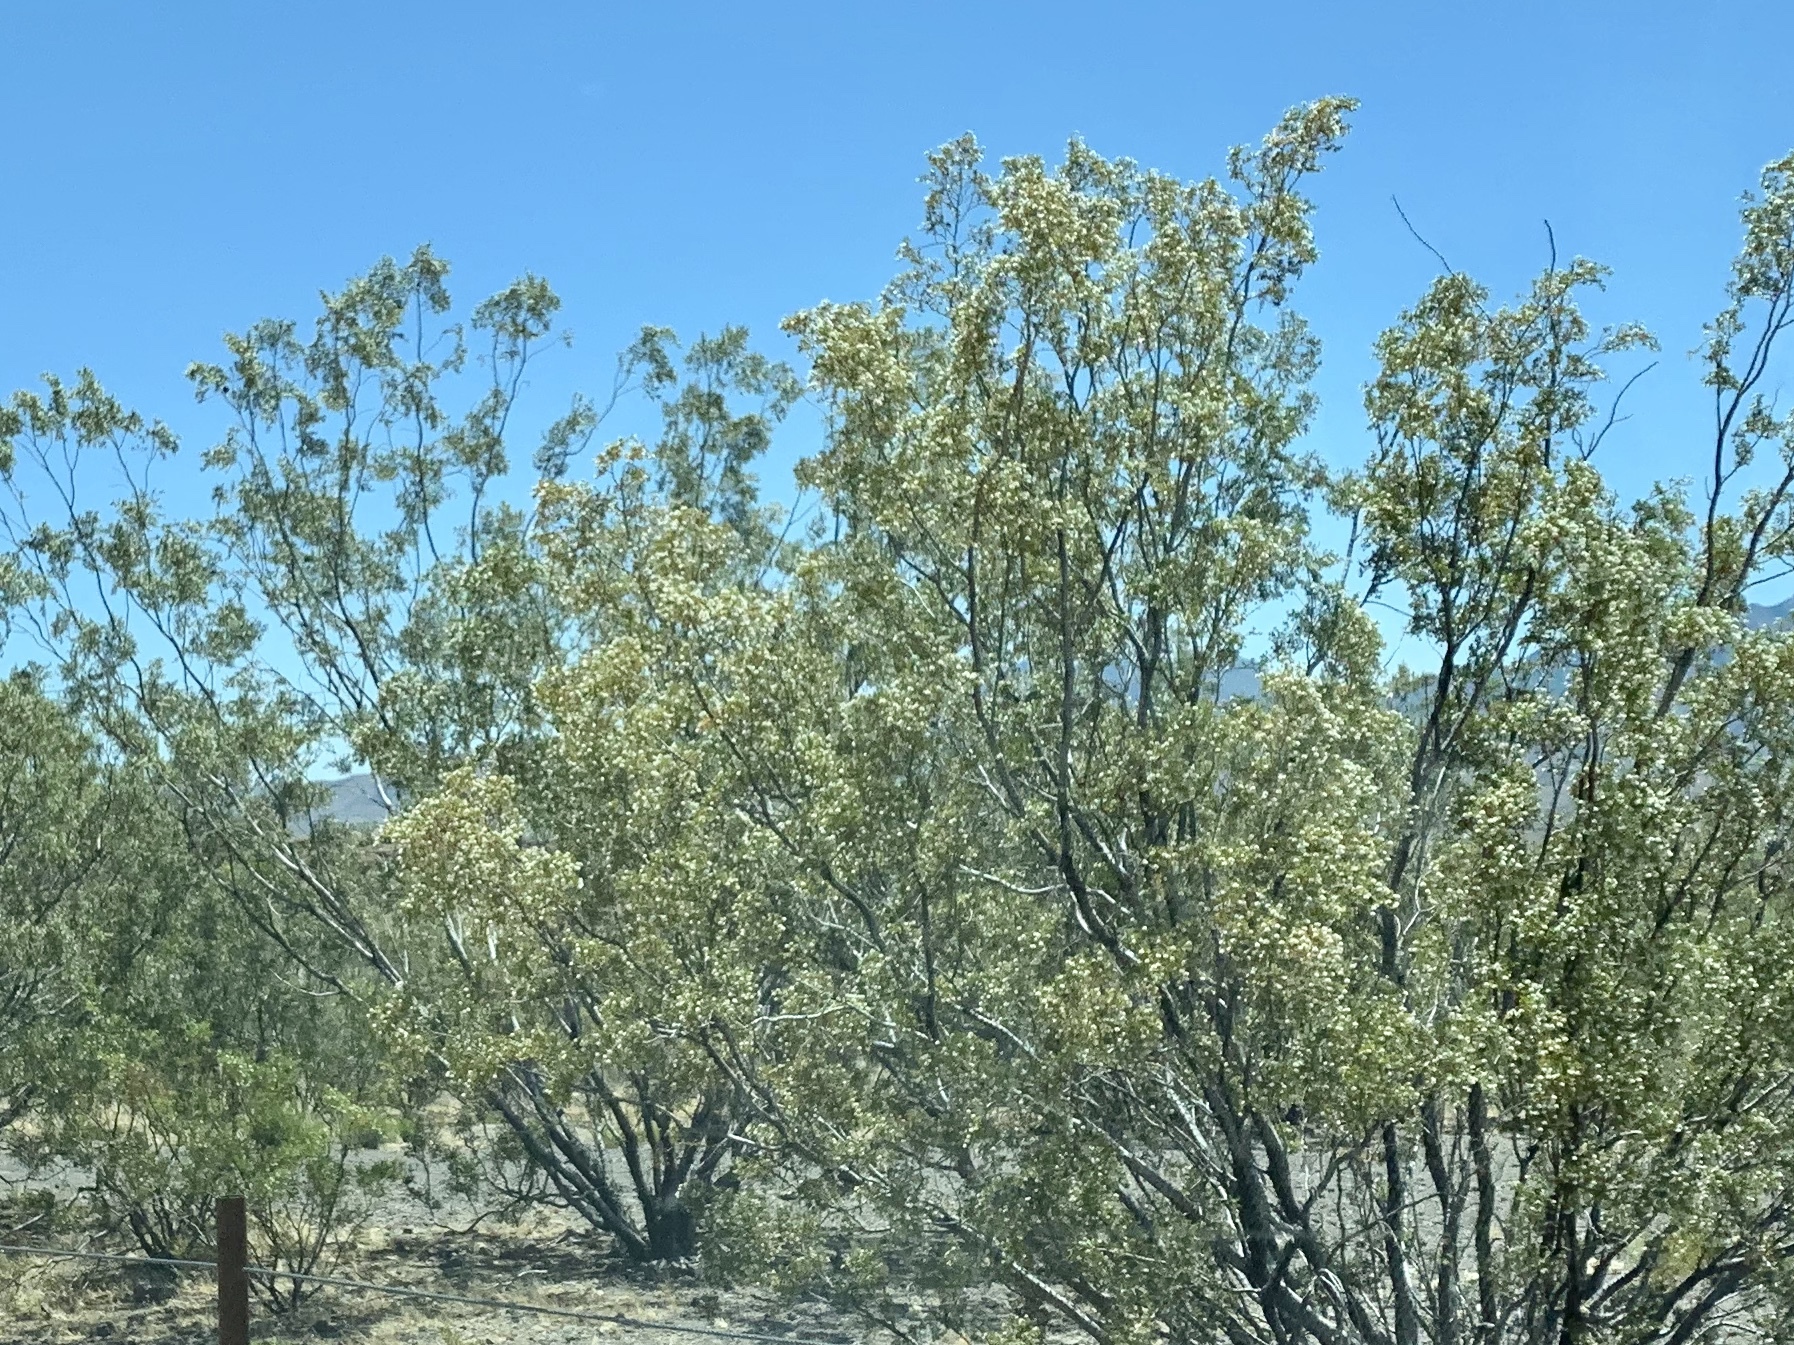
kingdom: Plantae
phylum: Tracheophyta
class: Magnoliopsida
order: Zygophyllales
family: Zygophyllaceae
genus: Larrea
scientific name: Larrea tridentata
